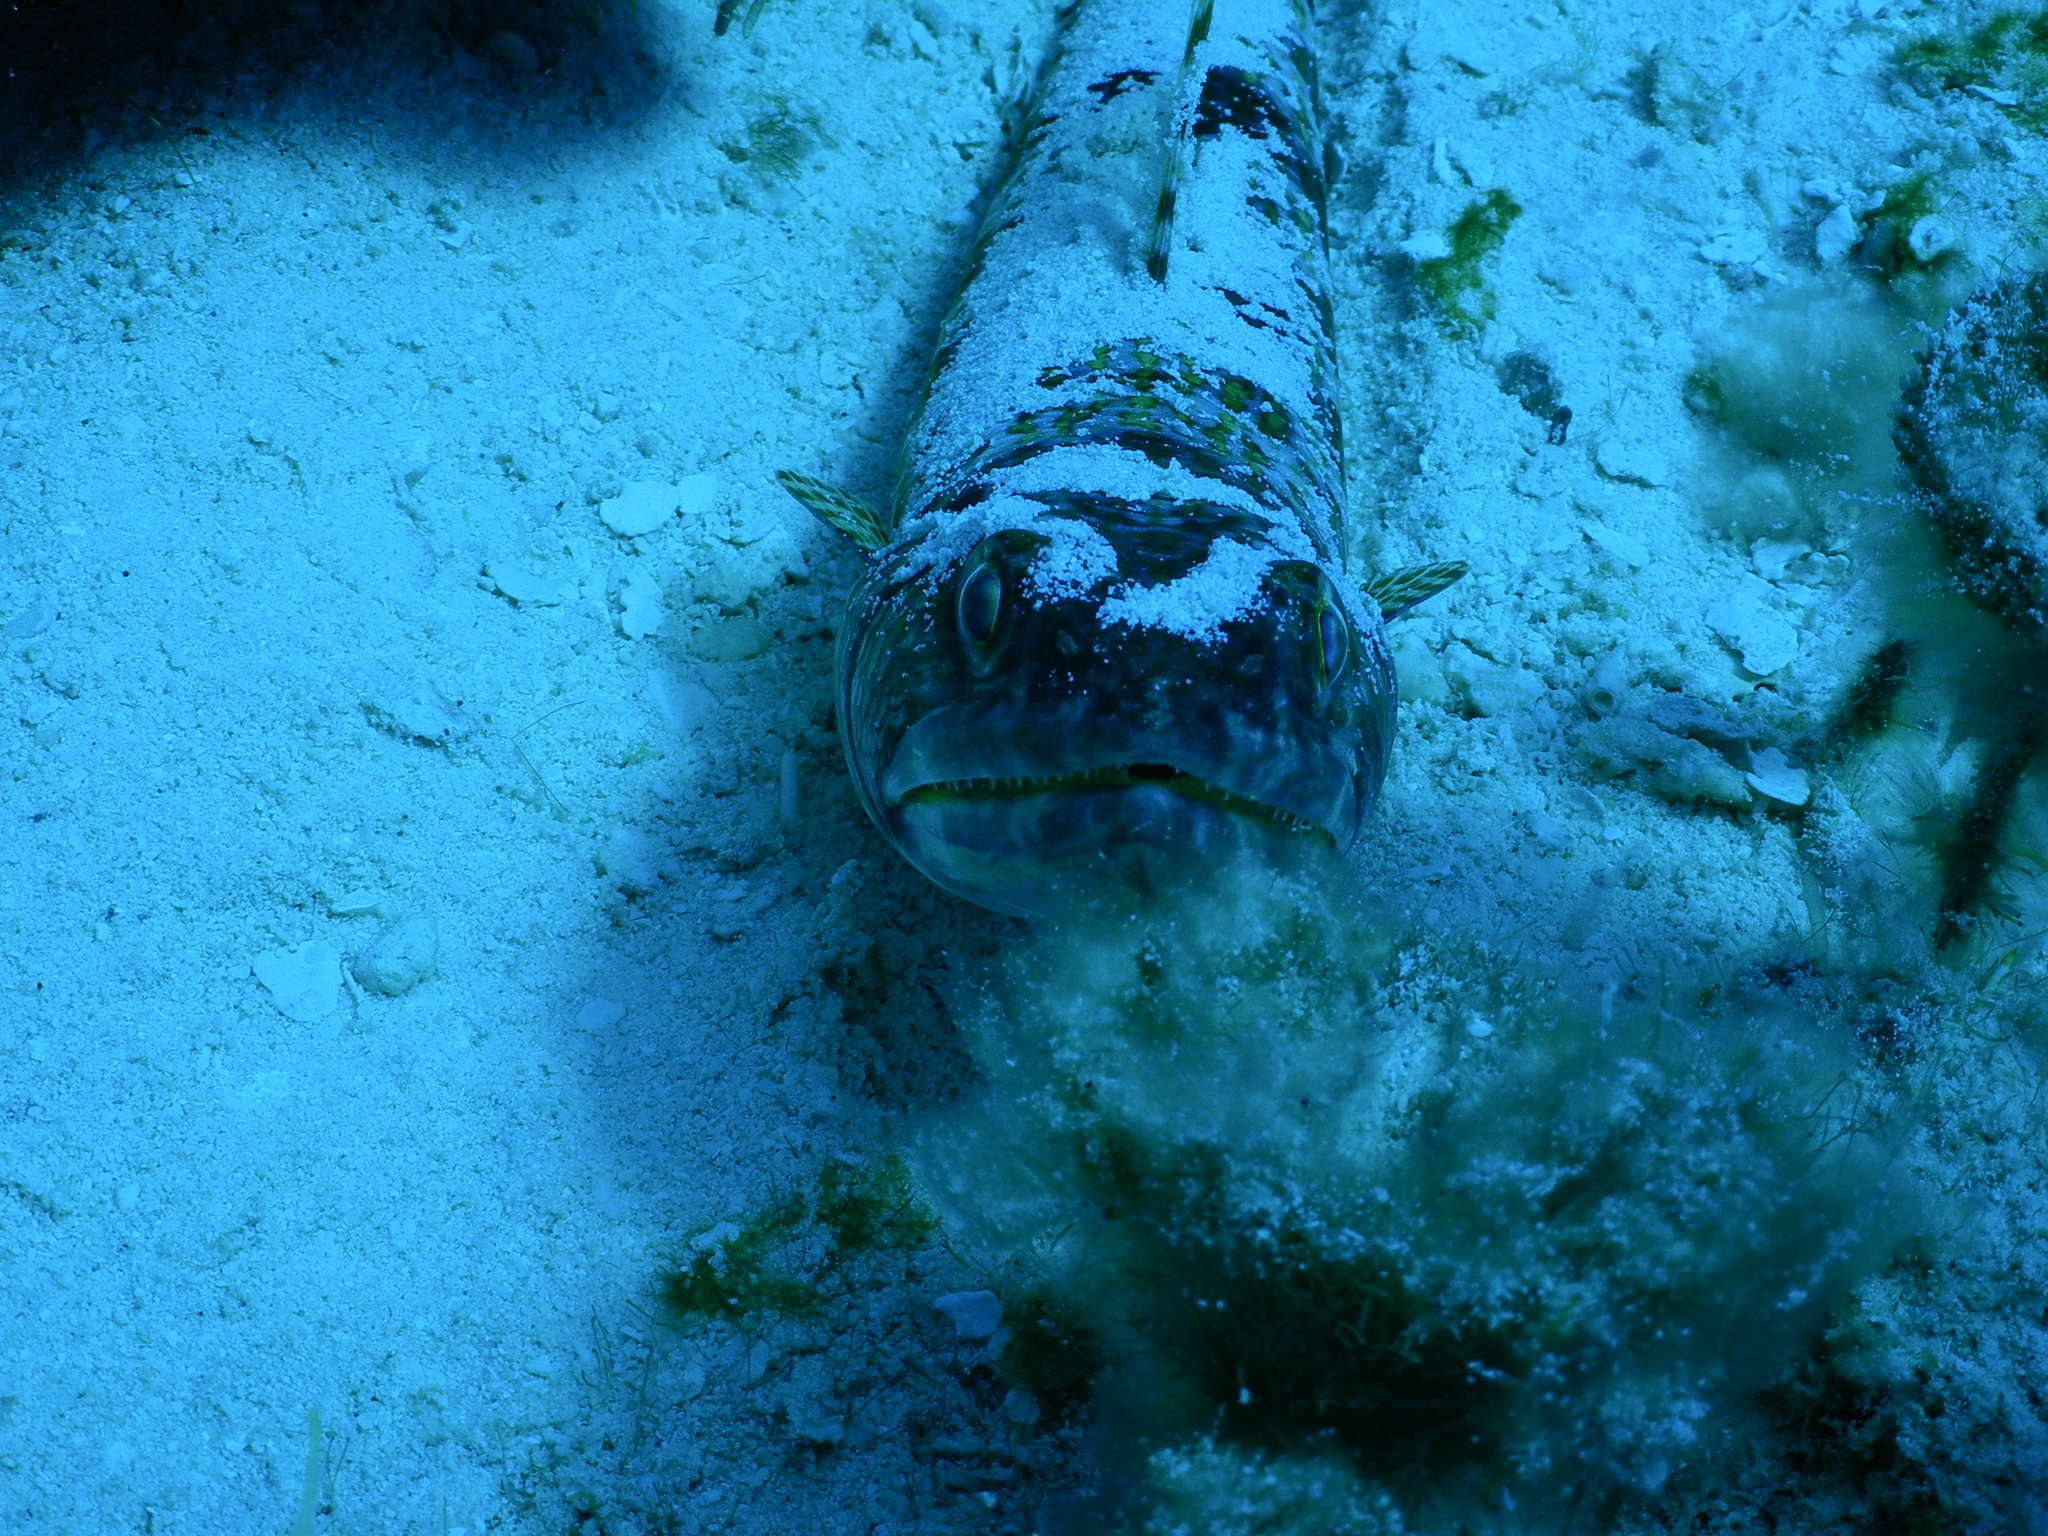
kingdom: Animalia
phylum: Chordata
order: Aulopiformes
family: Synodontidae
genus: Synodus
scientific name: Synodus intermedius
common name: Sand diver
